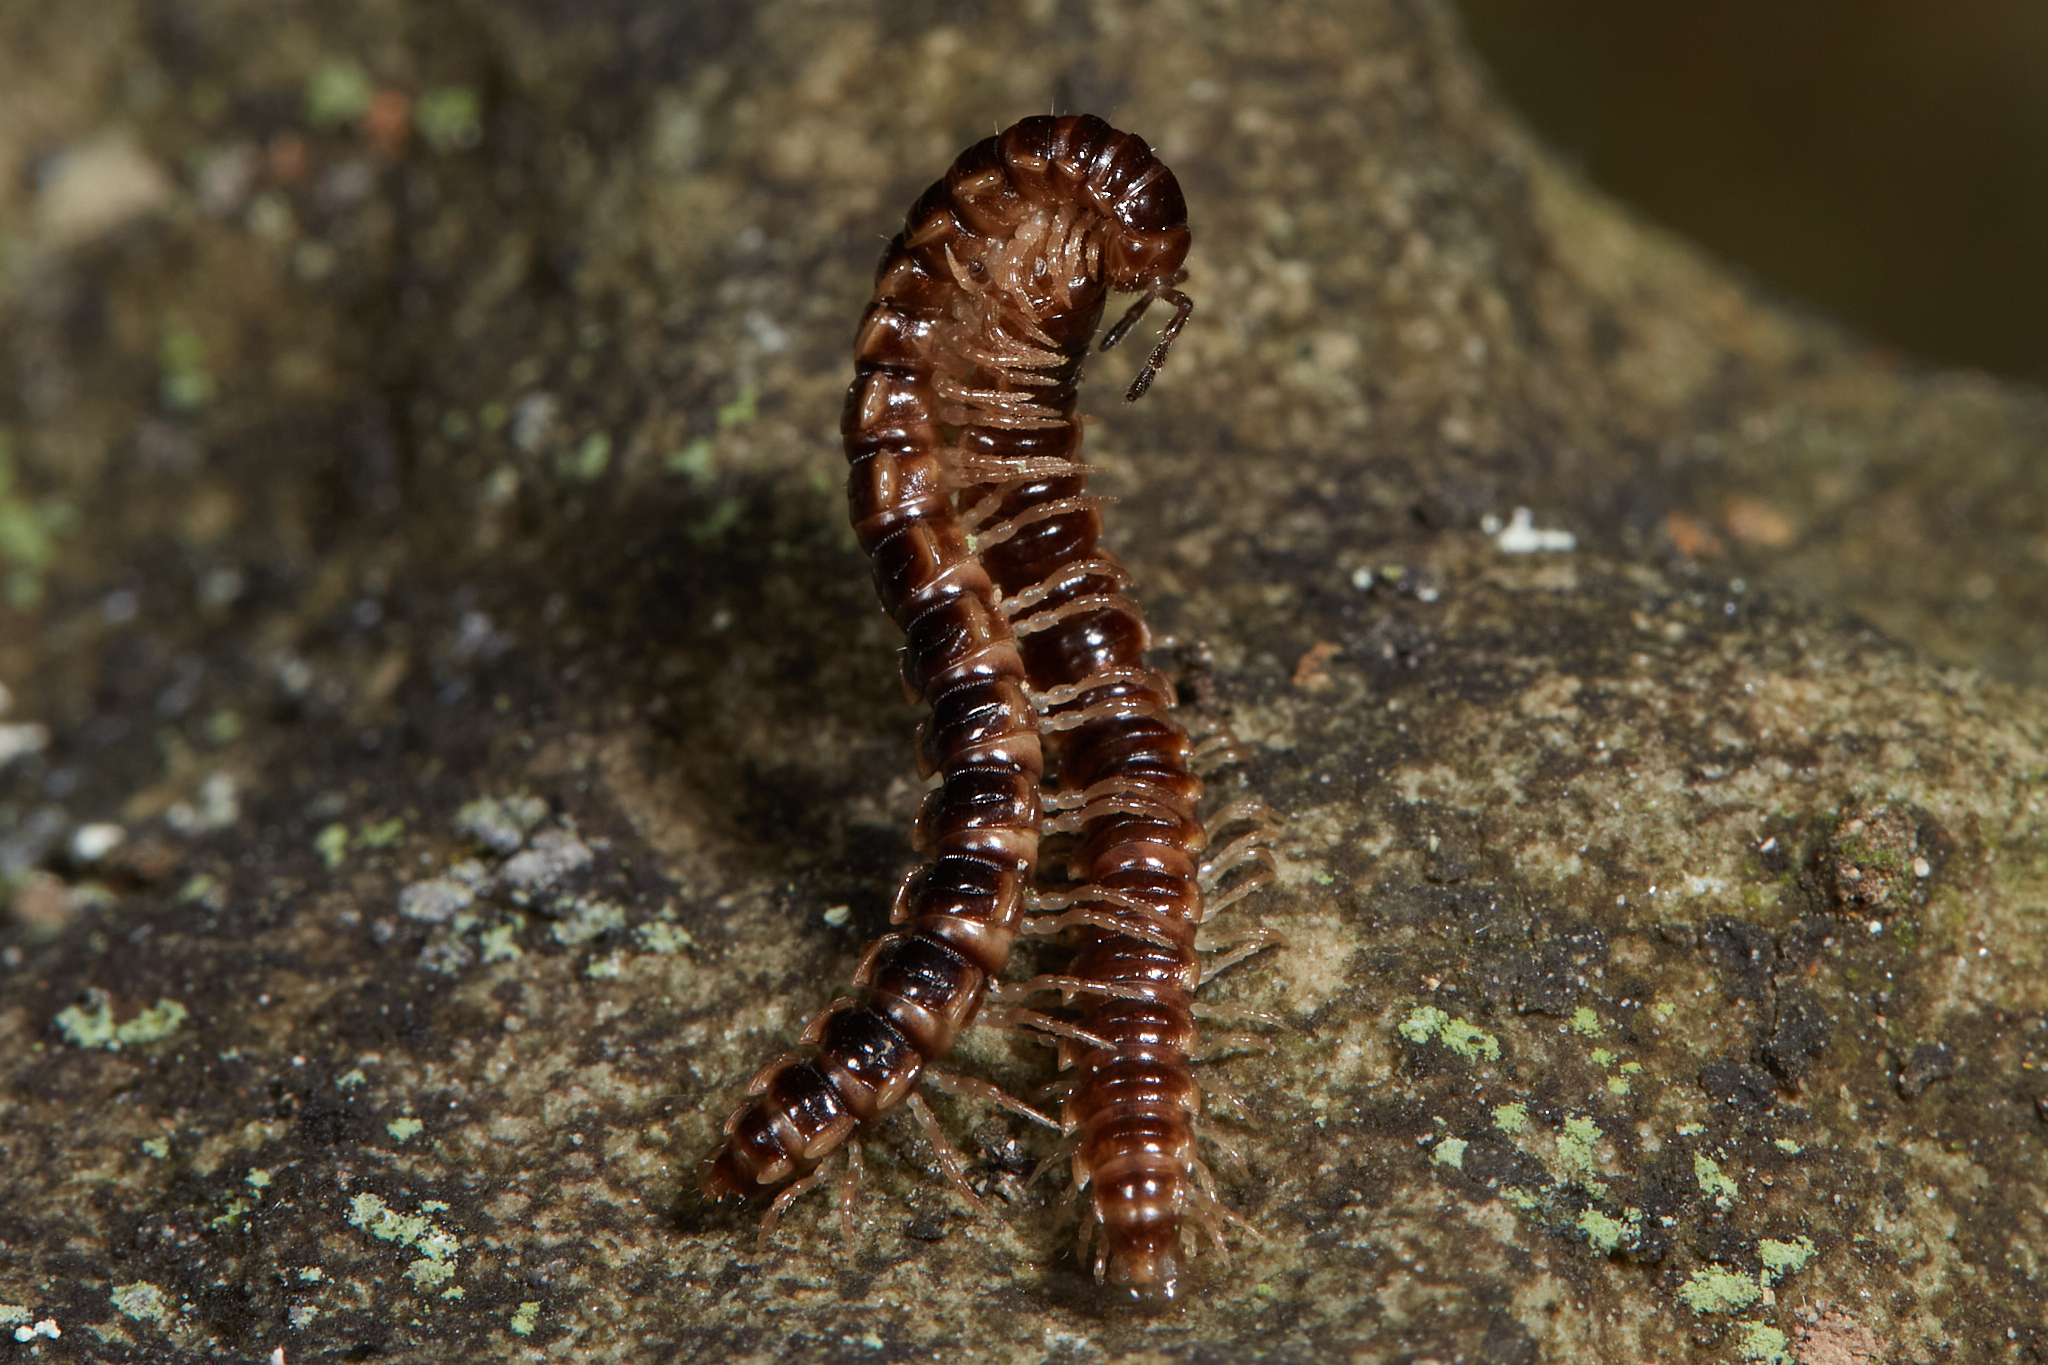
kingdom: Animalia
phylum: Arthropoda
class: Diplopoda
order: Polydesmida
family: Paradoxosomatidae
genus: Oxidus
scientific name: Oxidus gracilis
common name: Greenhouse millipede
